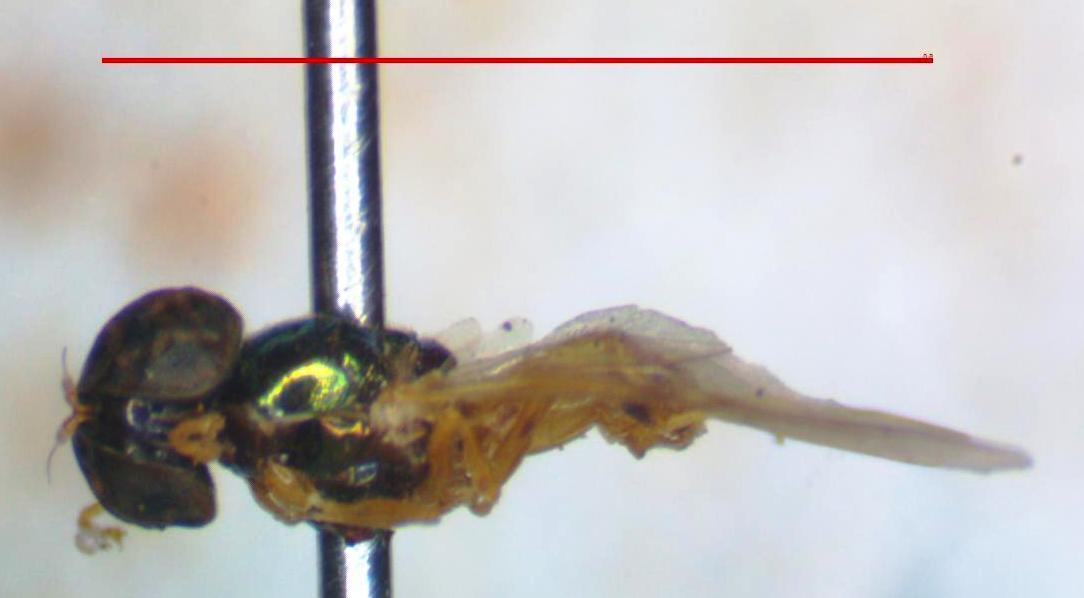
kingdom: Animalia
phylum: Arthropoda
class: Insecta
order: Diptera
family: Stratiomyidae
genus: Microchrysa
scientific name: Microchrysa bicolor
